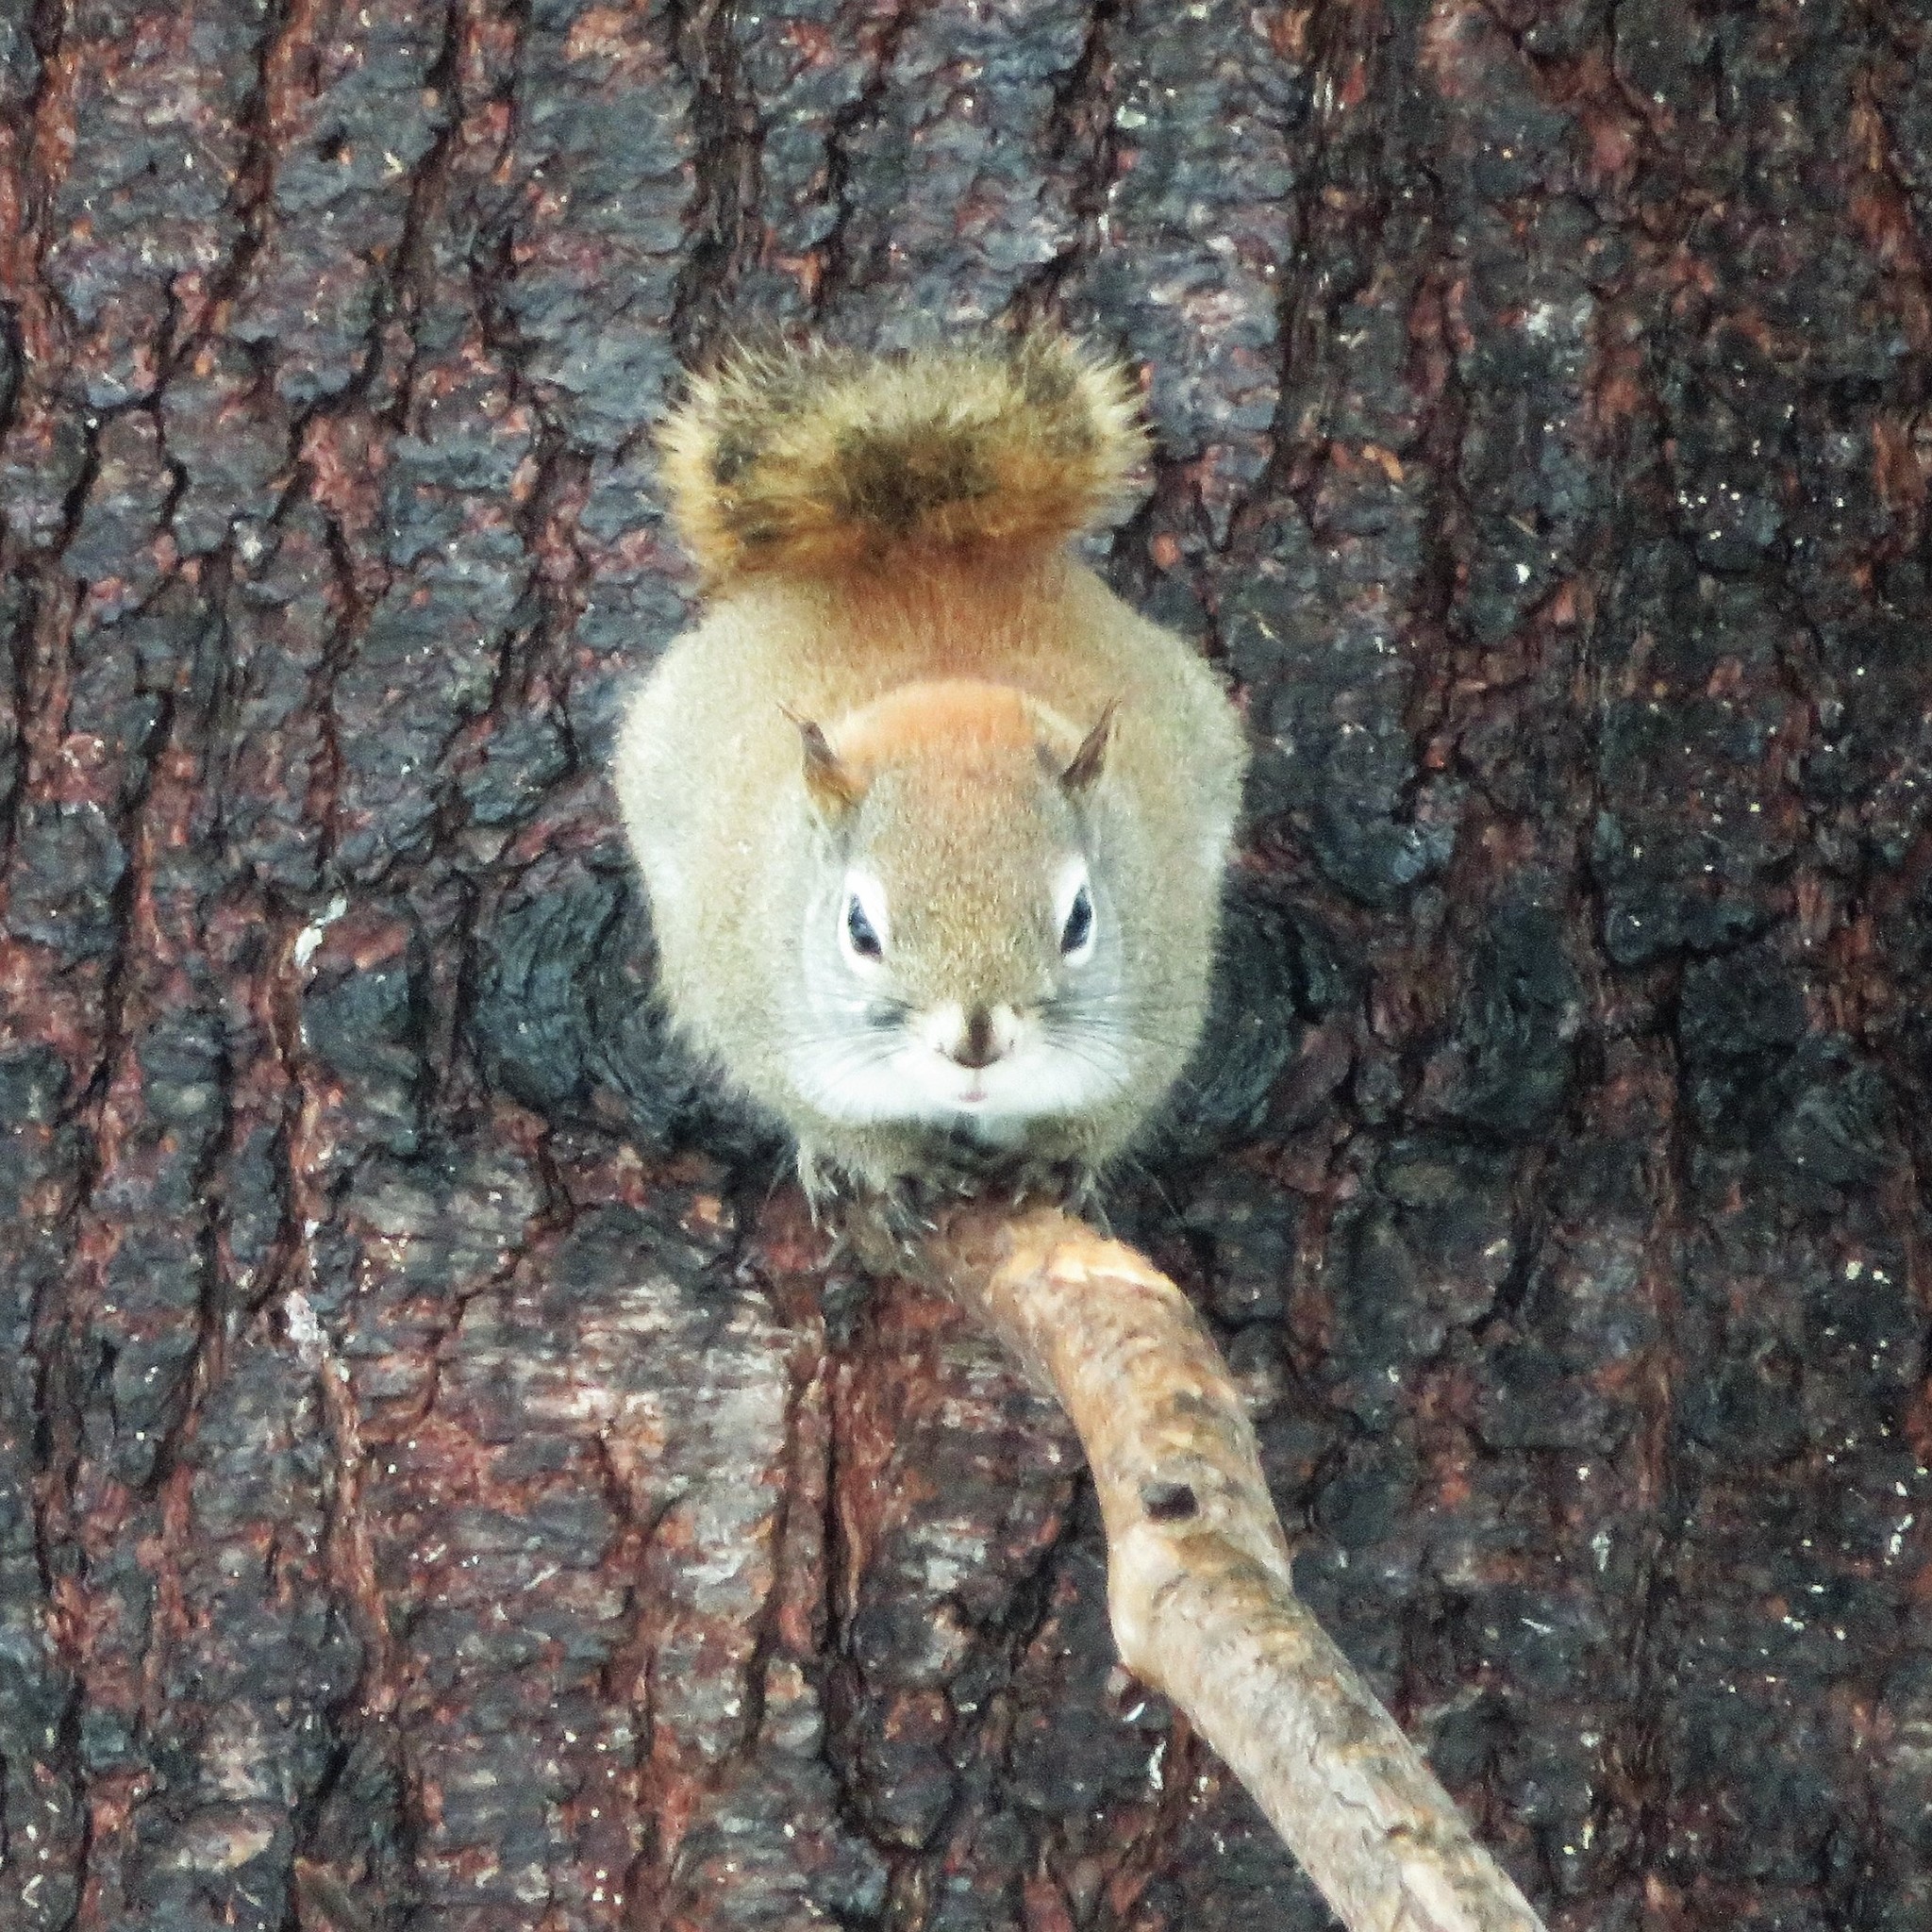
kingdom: Animalia
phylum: Chordata
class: Mammalia
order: Rodentia
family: Sciuridae
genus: Tamiasciurus
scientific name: Tamiasciurus hudsonicus
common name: Red squirrel
